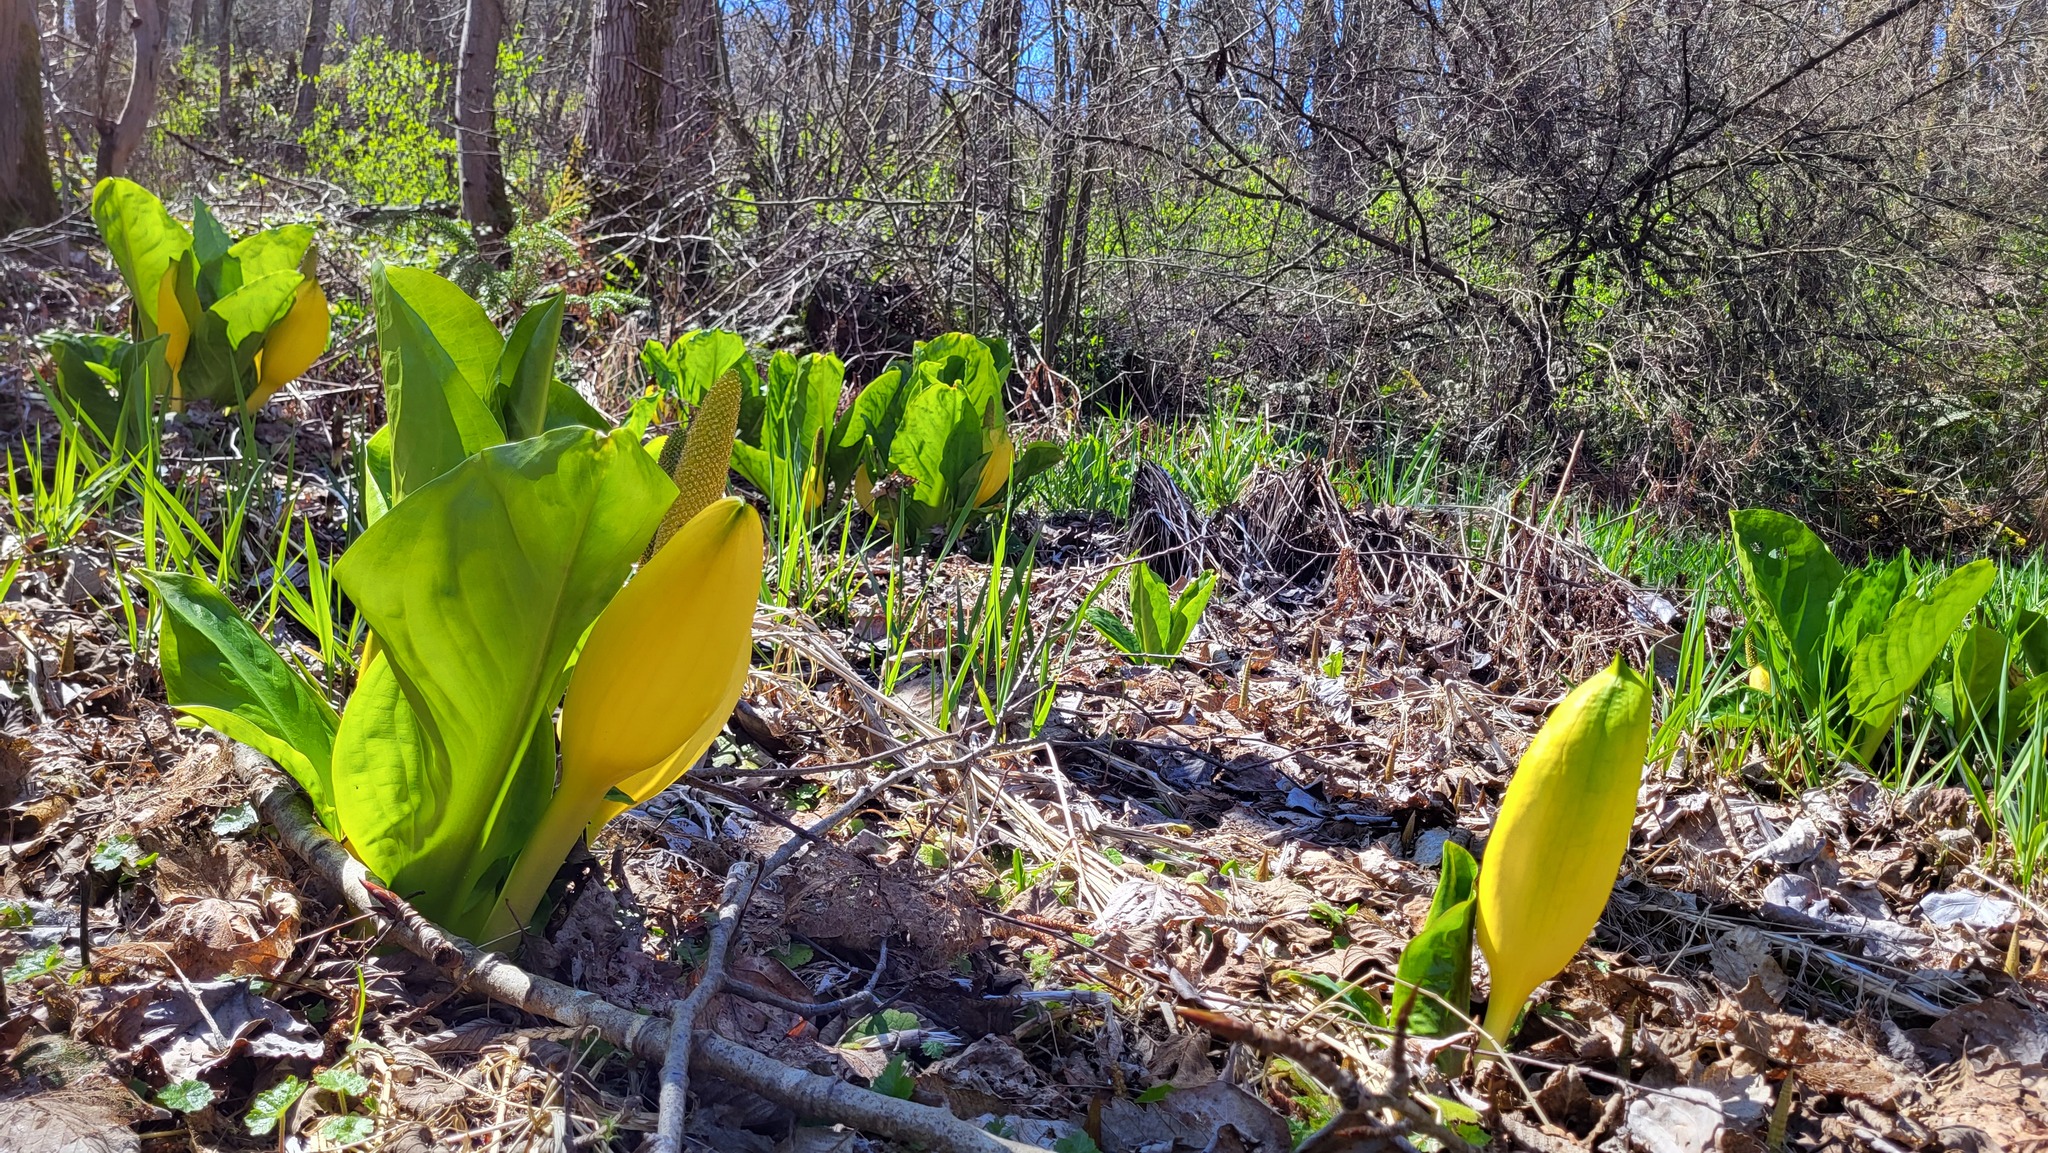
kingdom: Plantae
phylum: Tracheophyta
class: Liliopsida
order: Alismatales
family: Araceae
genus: Lysichiton
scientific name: Lysichiton americanus
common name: American skunk cabbage
